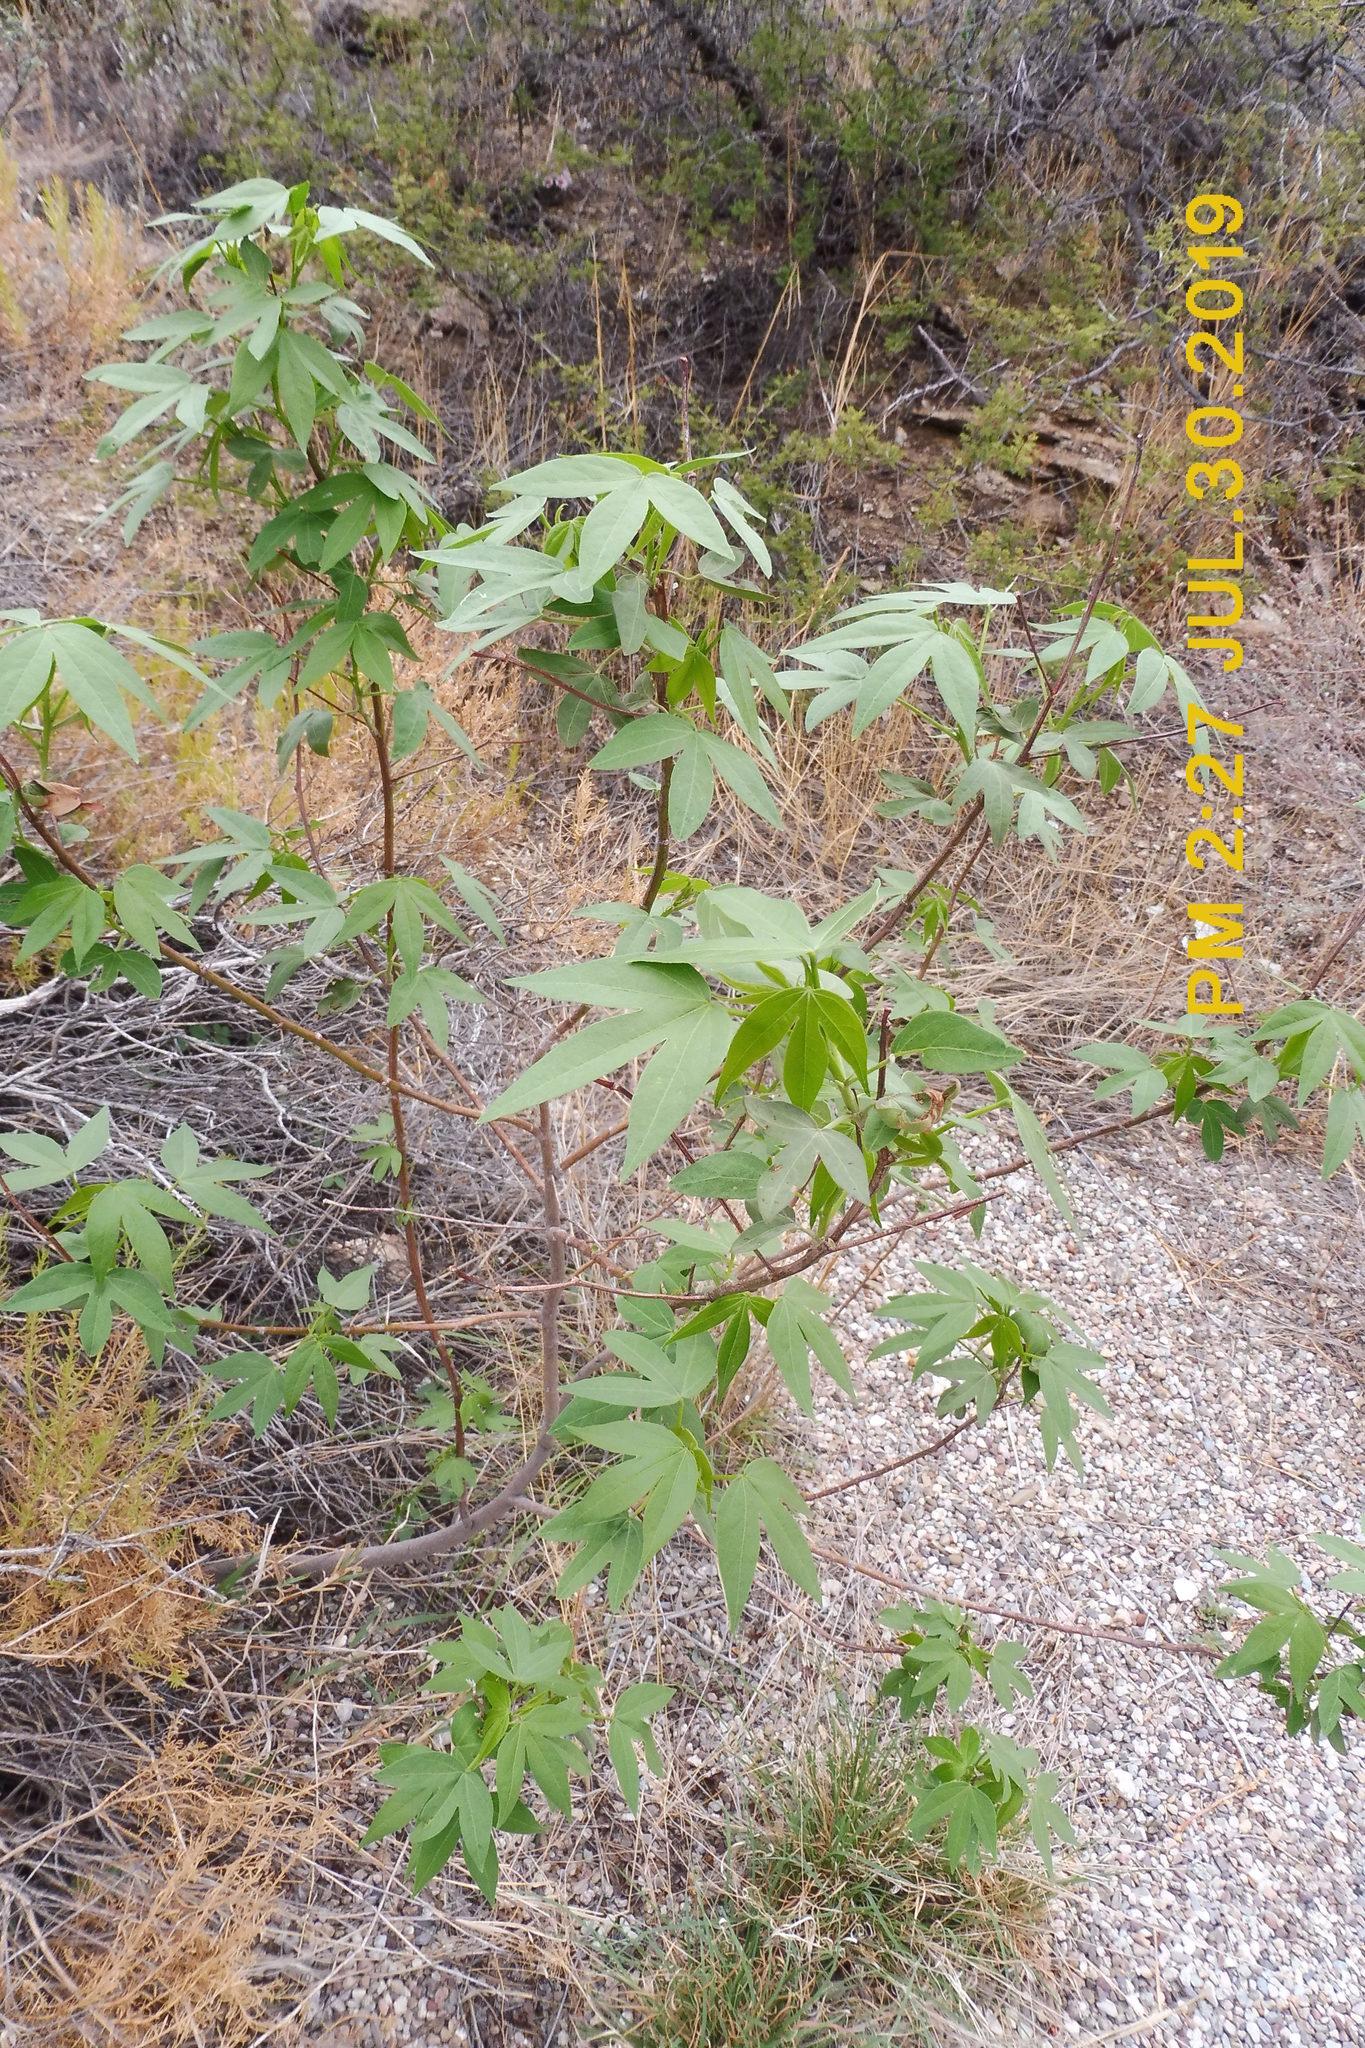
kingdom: Plantae
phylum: Tracheophyta
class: Magnoliopsida
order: Malvales
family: Malvaceae
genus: Gossypium
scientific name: Gossypium thurberi
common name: Desert cotton
